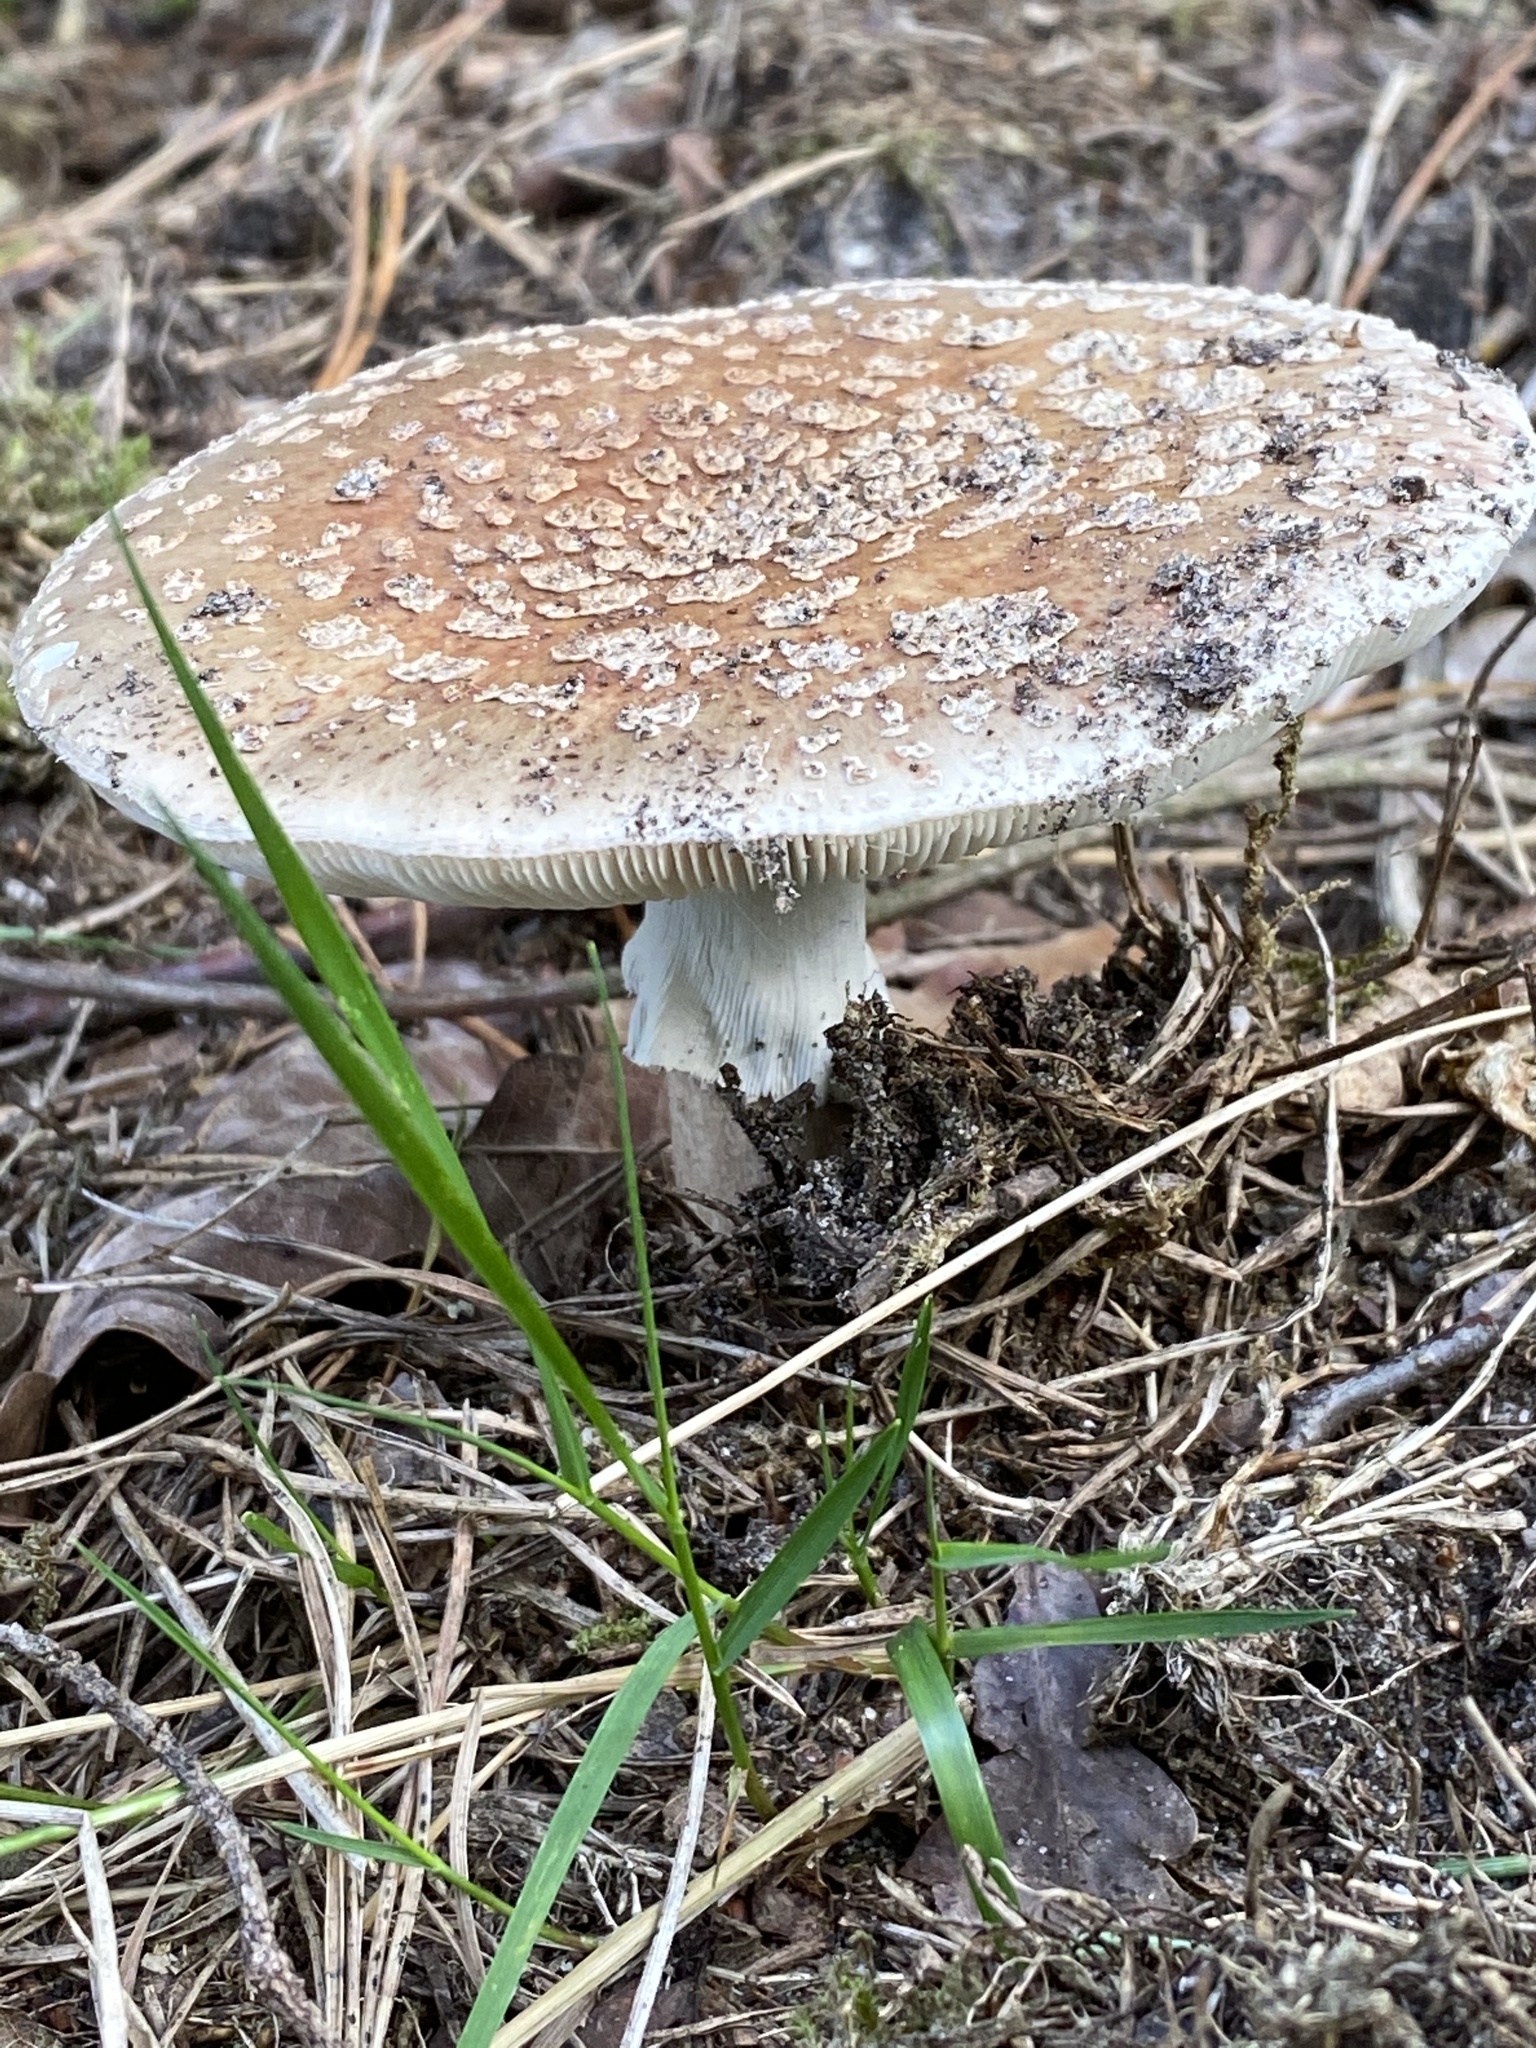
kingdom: Fungi
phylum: Basidiomycota
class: Agaricomycetes
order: Agaricales
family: Amanitaceae
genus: Amanita
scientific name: Amanita rubescens
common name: Blusher
